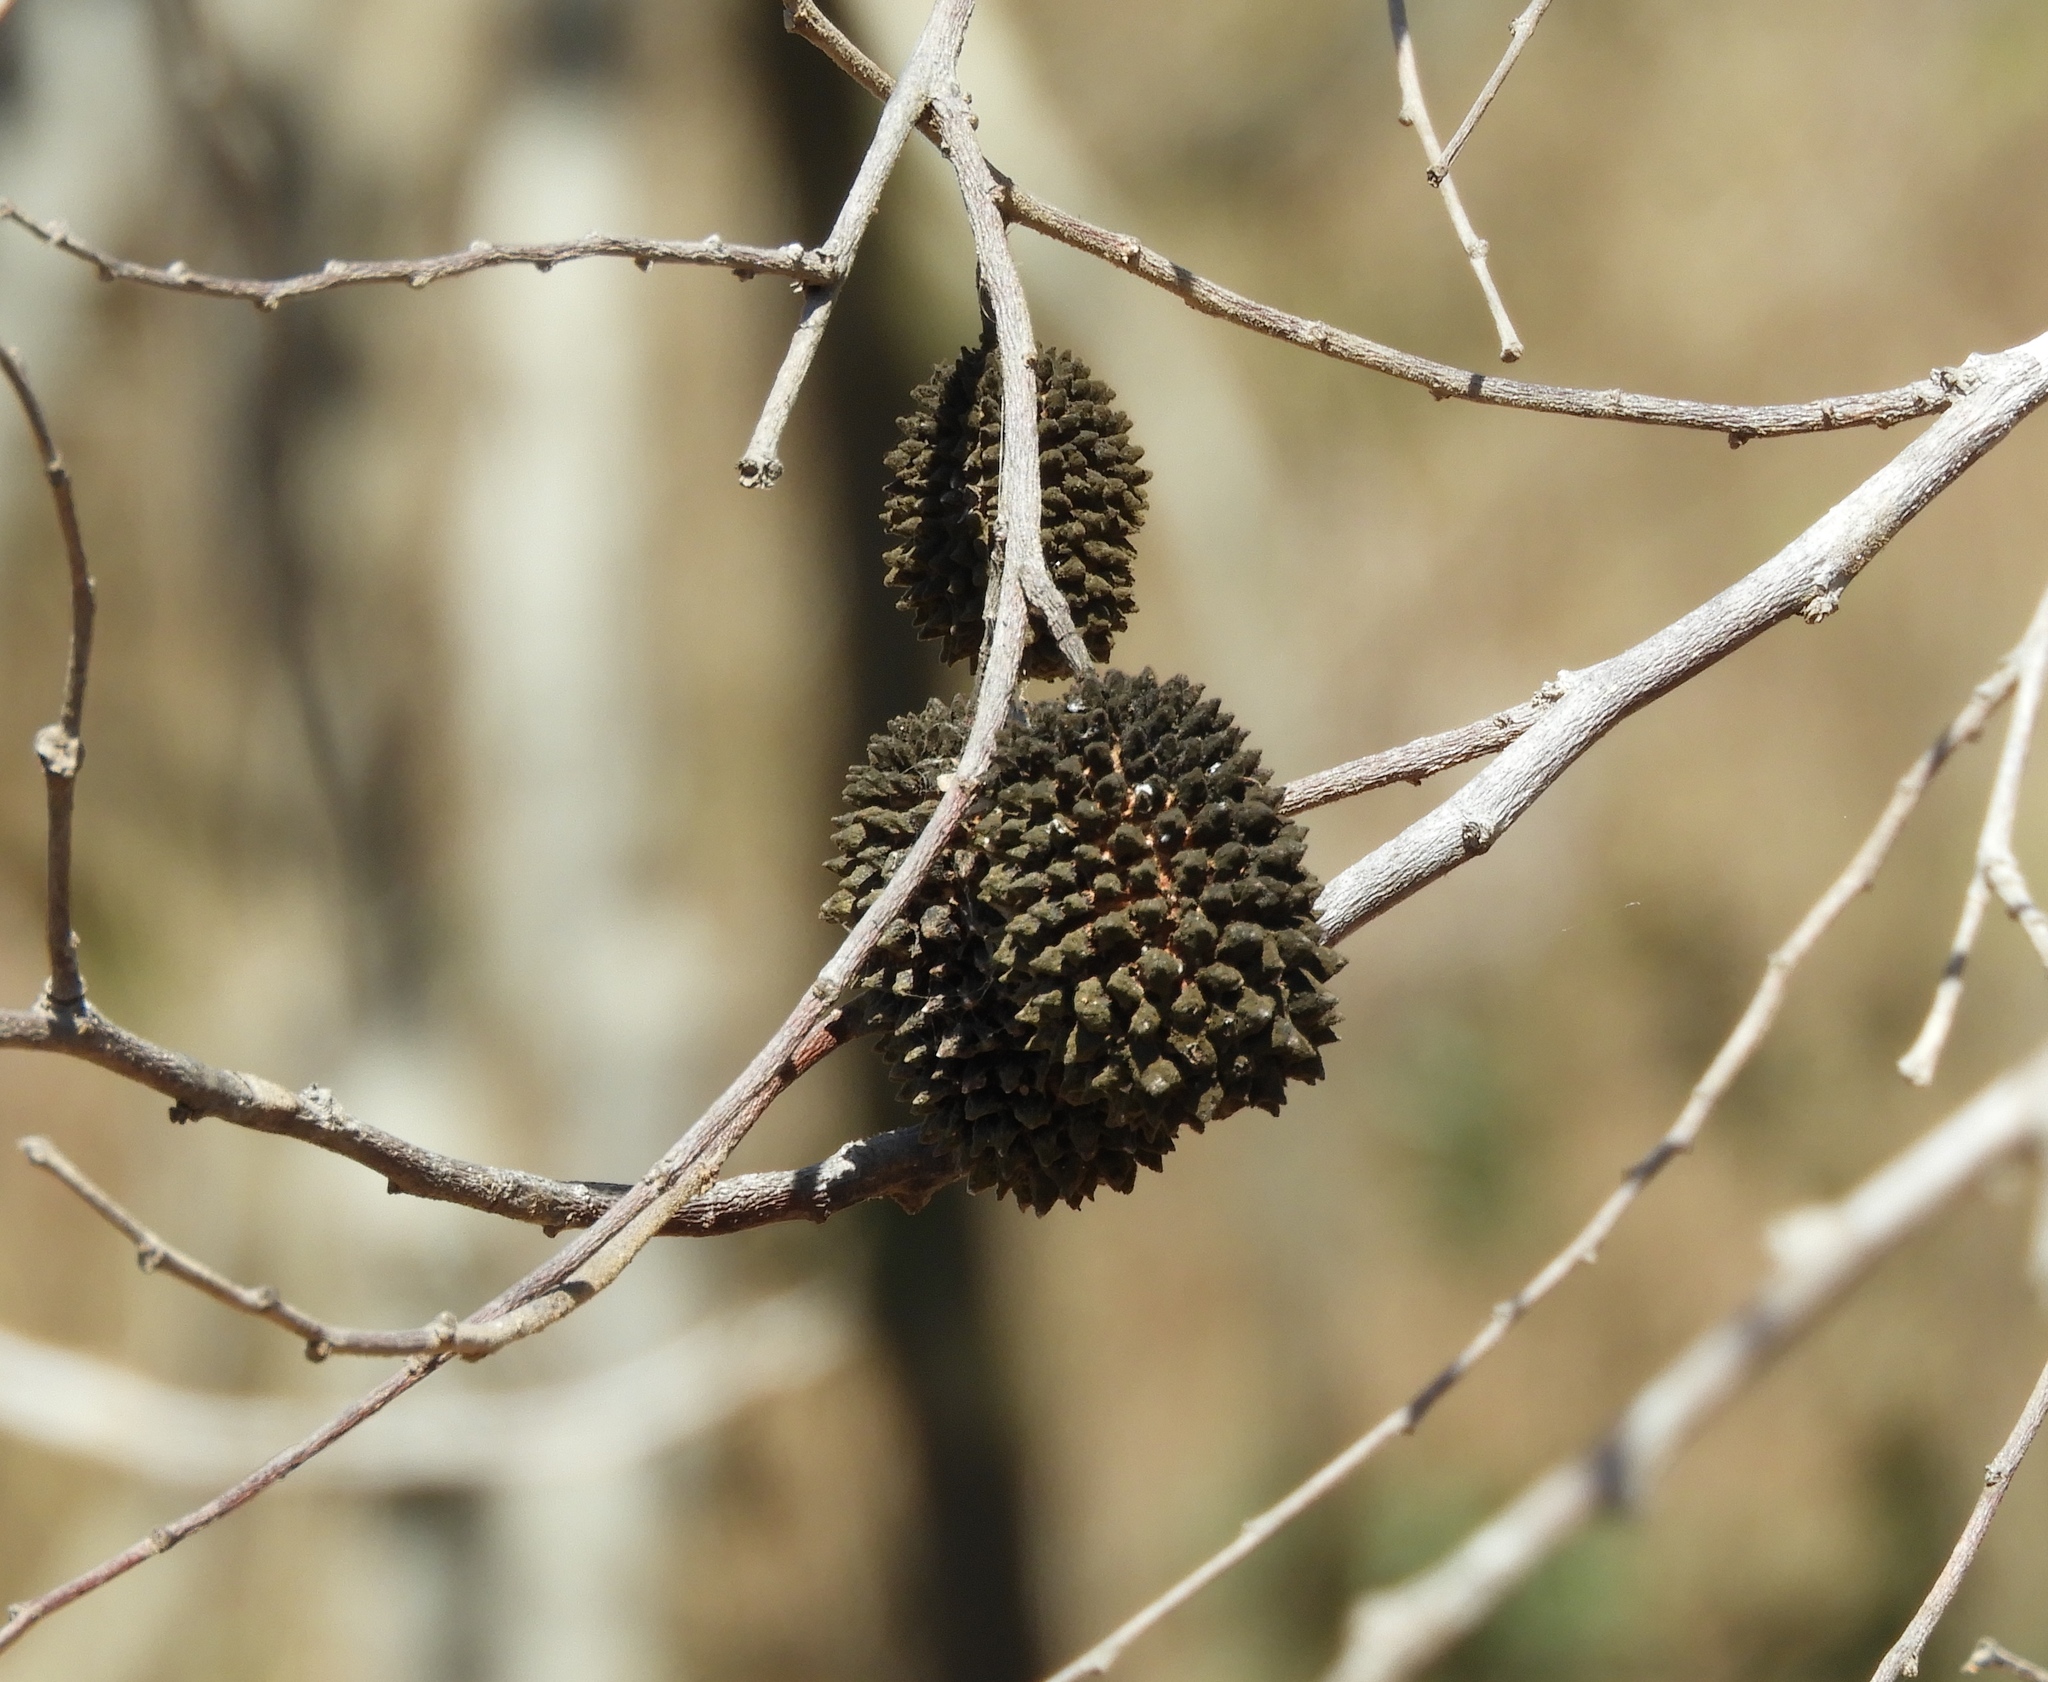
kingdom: Plantae
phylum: Tracheophyta
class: Magnoliopsida
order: Malvales
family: Malvaceae
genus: Guazuma
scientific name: Guazuma ulmifolia
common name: Bastard-cedar
